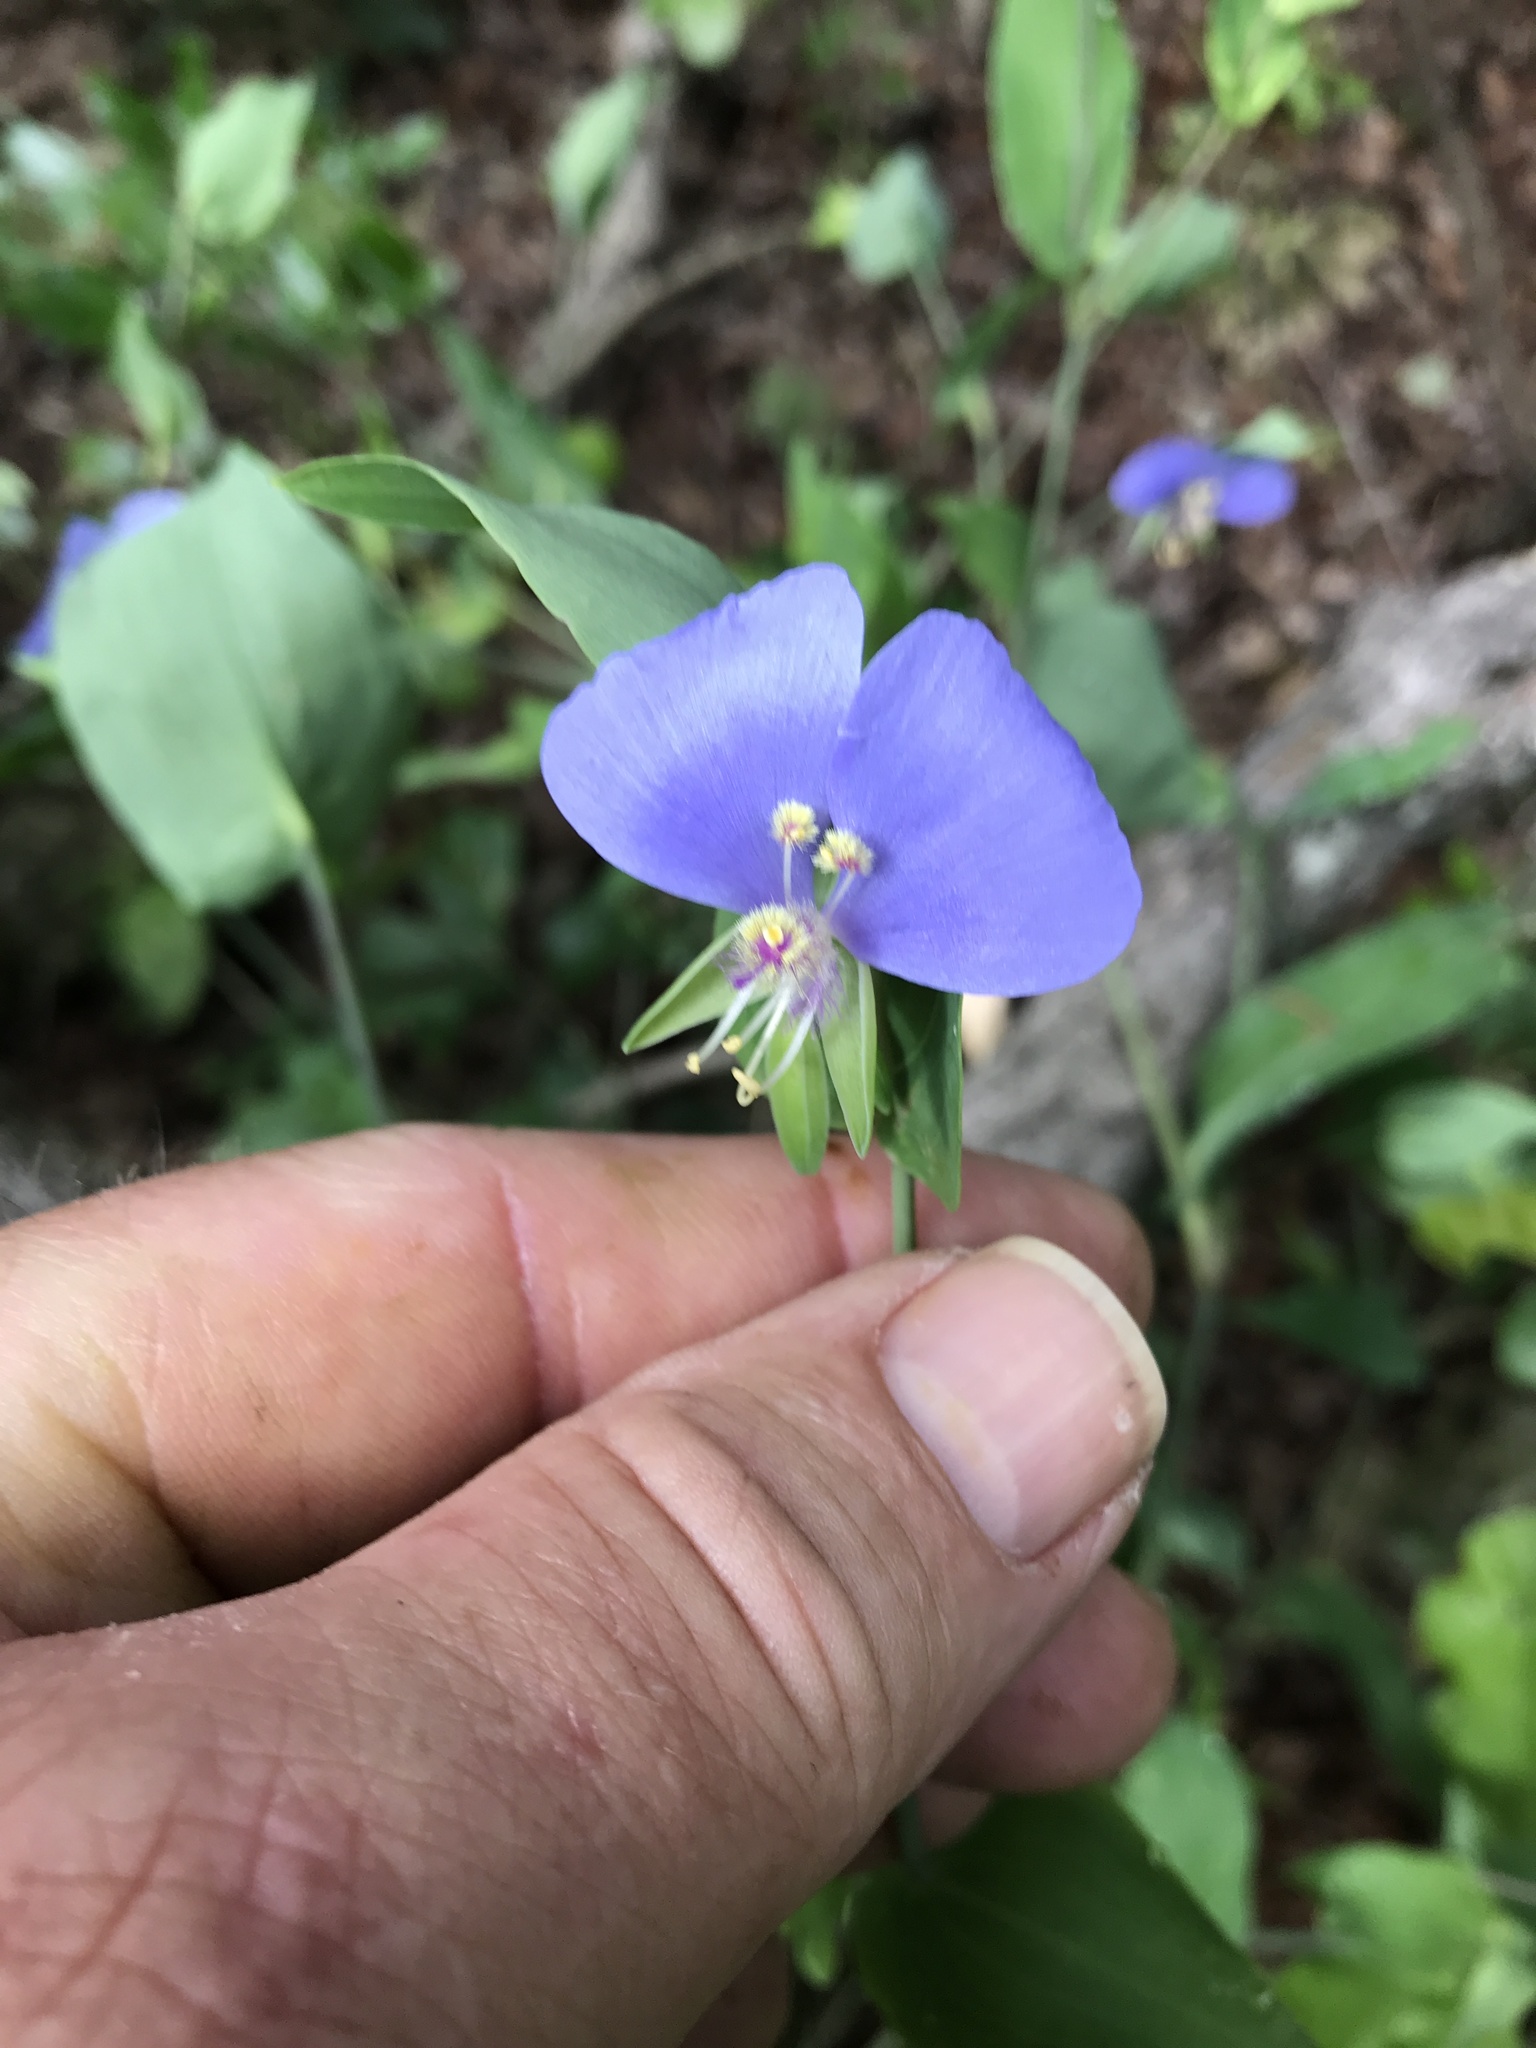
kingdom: Plantae
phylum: Tracheophyta
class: Liliopsida
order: Commelinales
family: Commelinaceae
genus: Tinantia
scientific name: Tinantia anomala
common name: False dayflower
